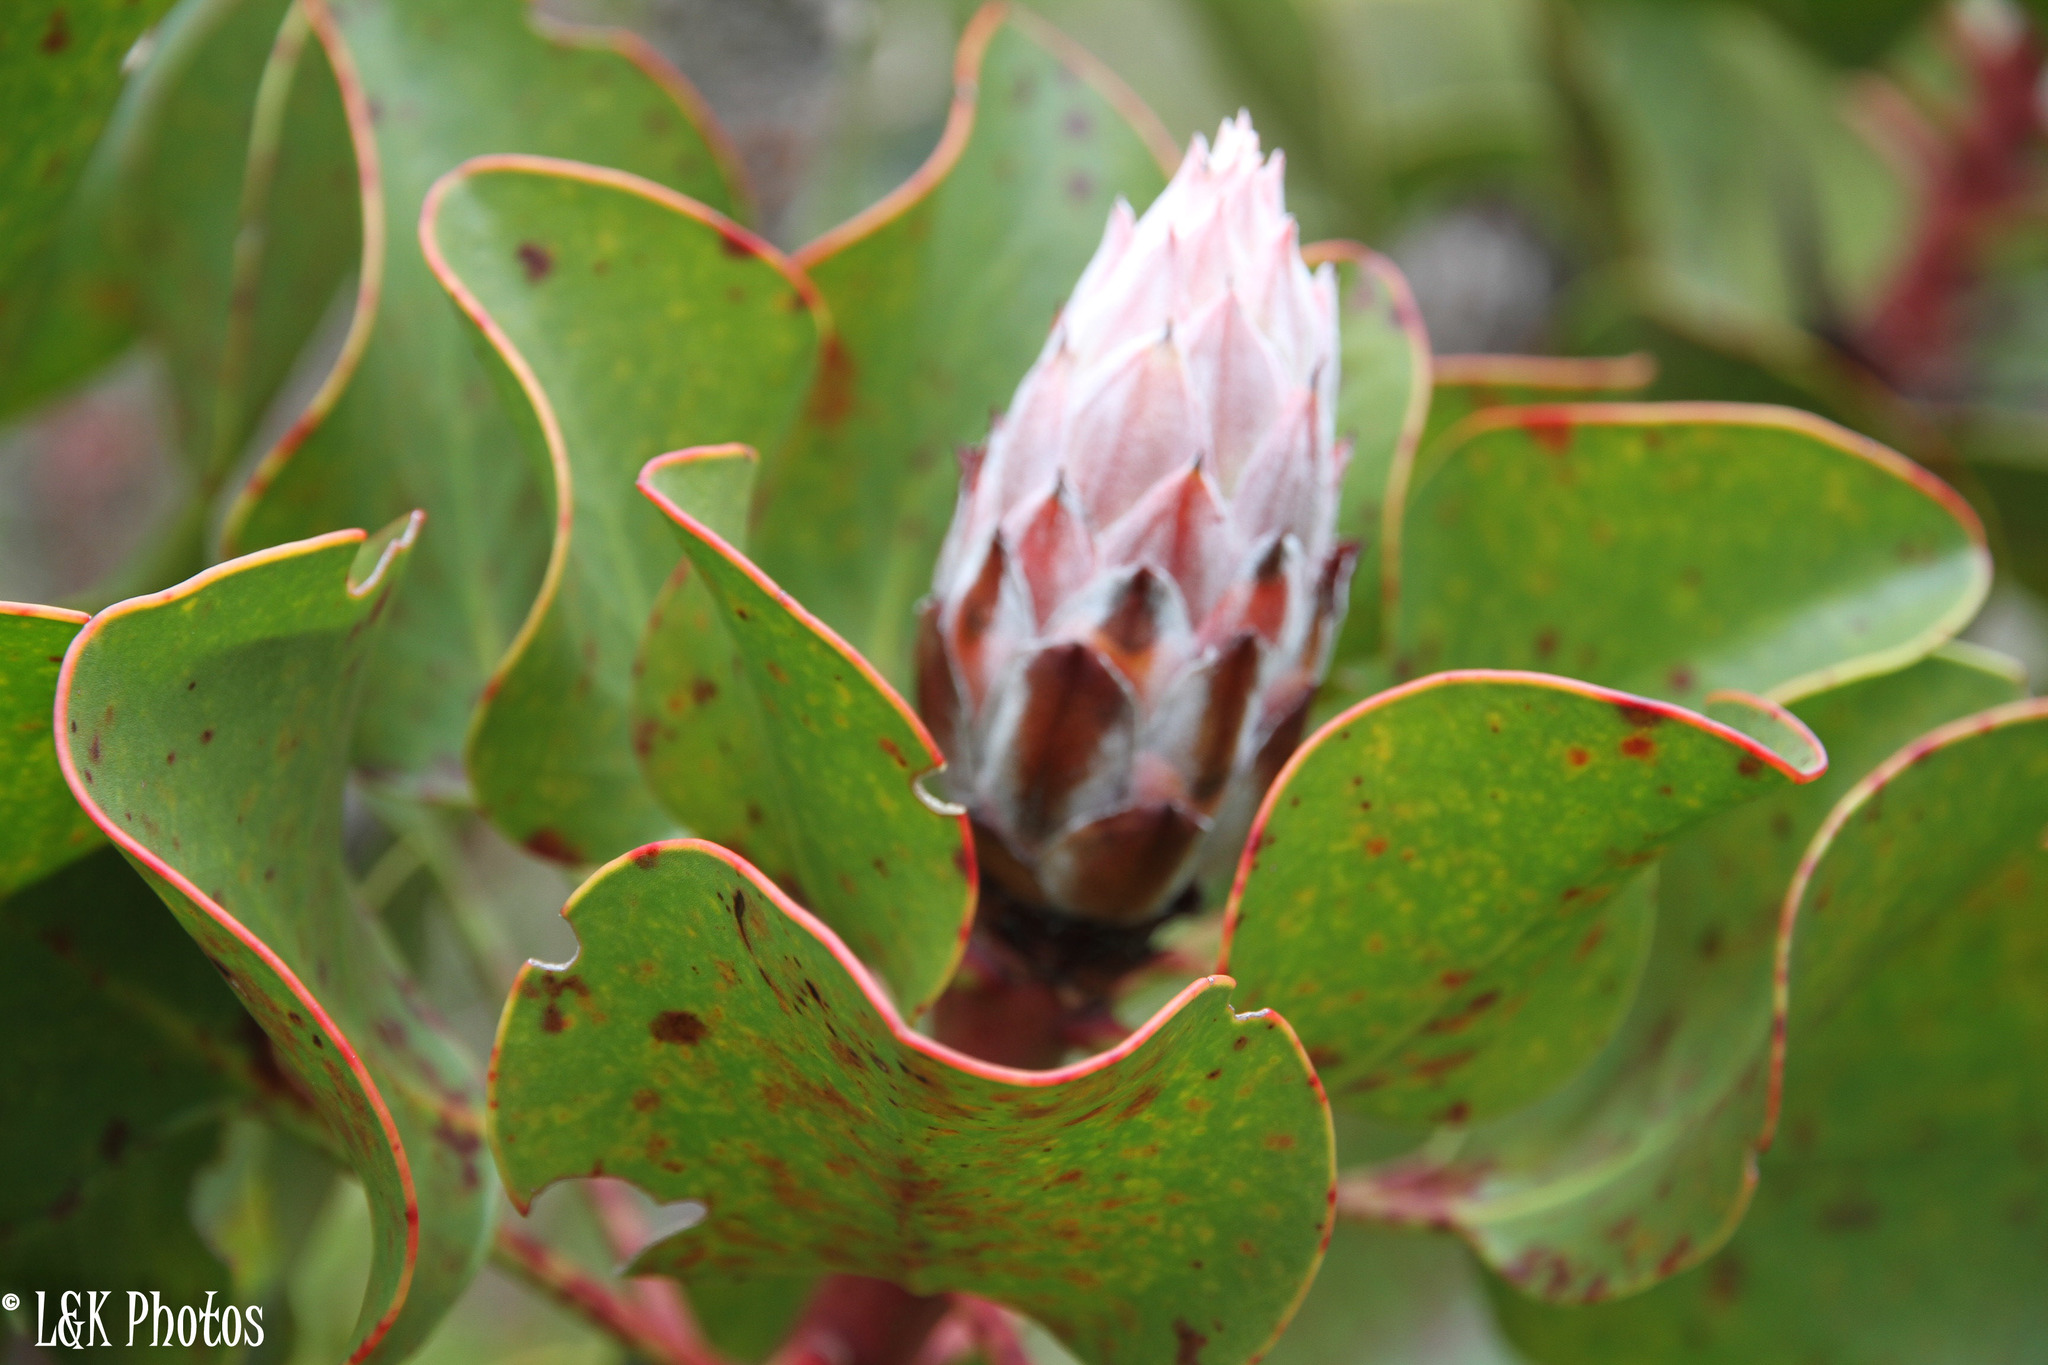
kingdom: Plantae
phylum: Tracheophyta
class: Magnoliopsida
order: Proteales
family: Proteaceae
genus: Protea
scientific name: Protea cynaroides
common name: King protea
